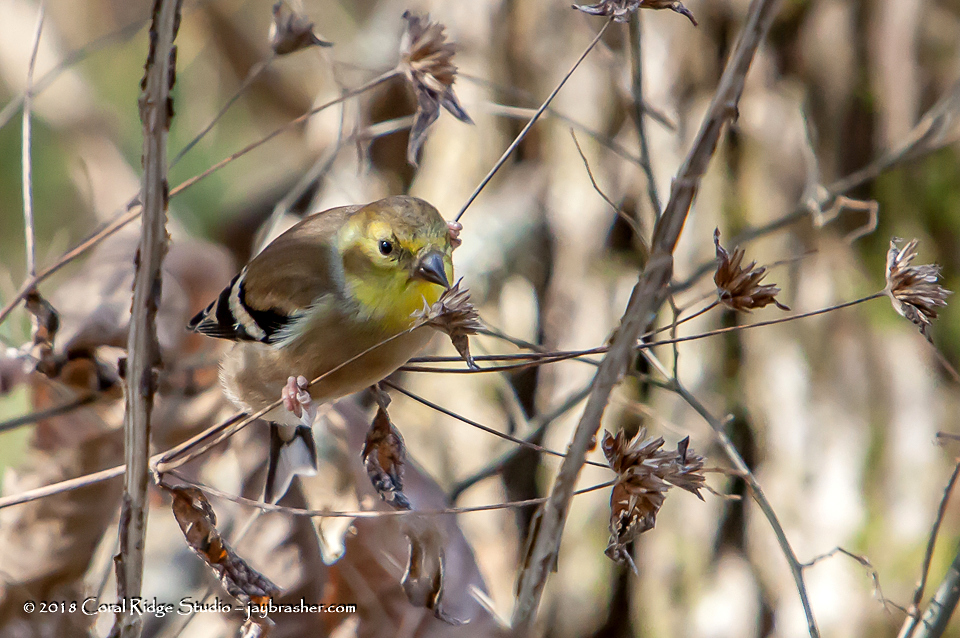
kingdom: Animalia
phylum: Chordata
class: Aves
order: Passeriformes
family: Fringillidae
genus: Spinus
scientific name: Spinus tristis
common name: American goldfinch
